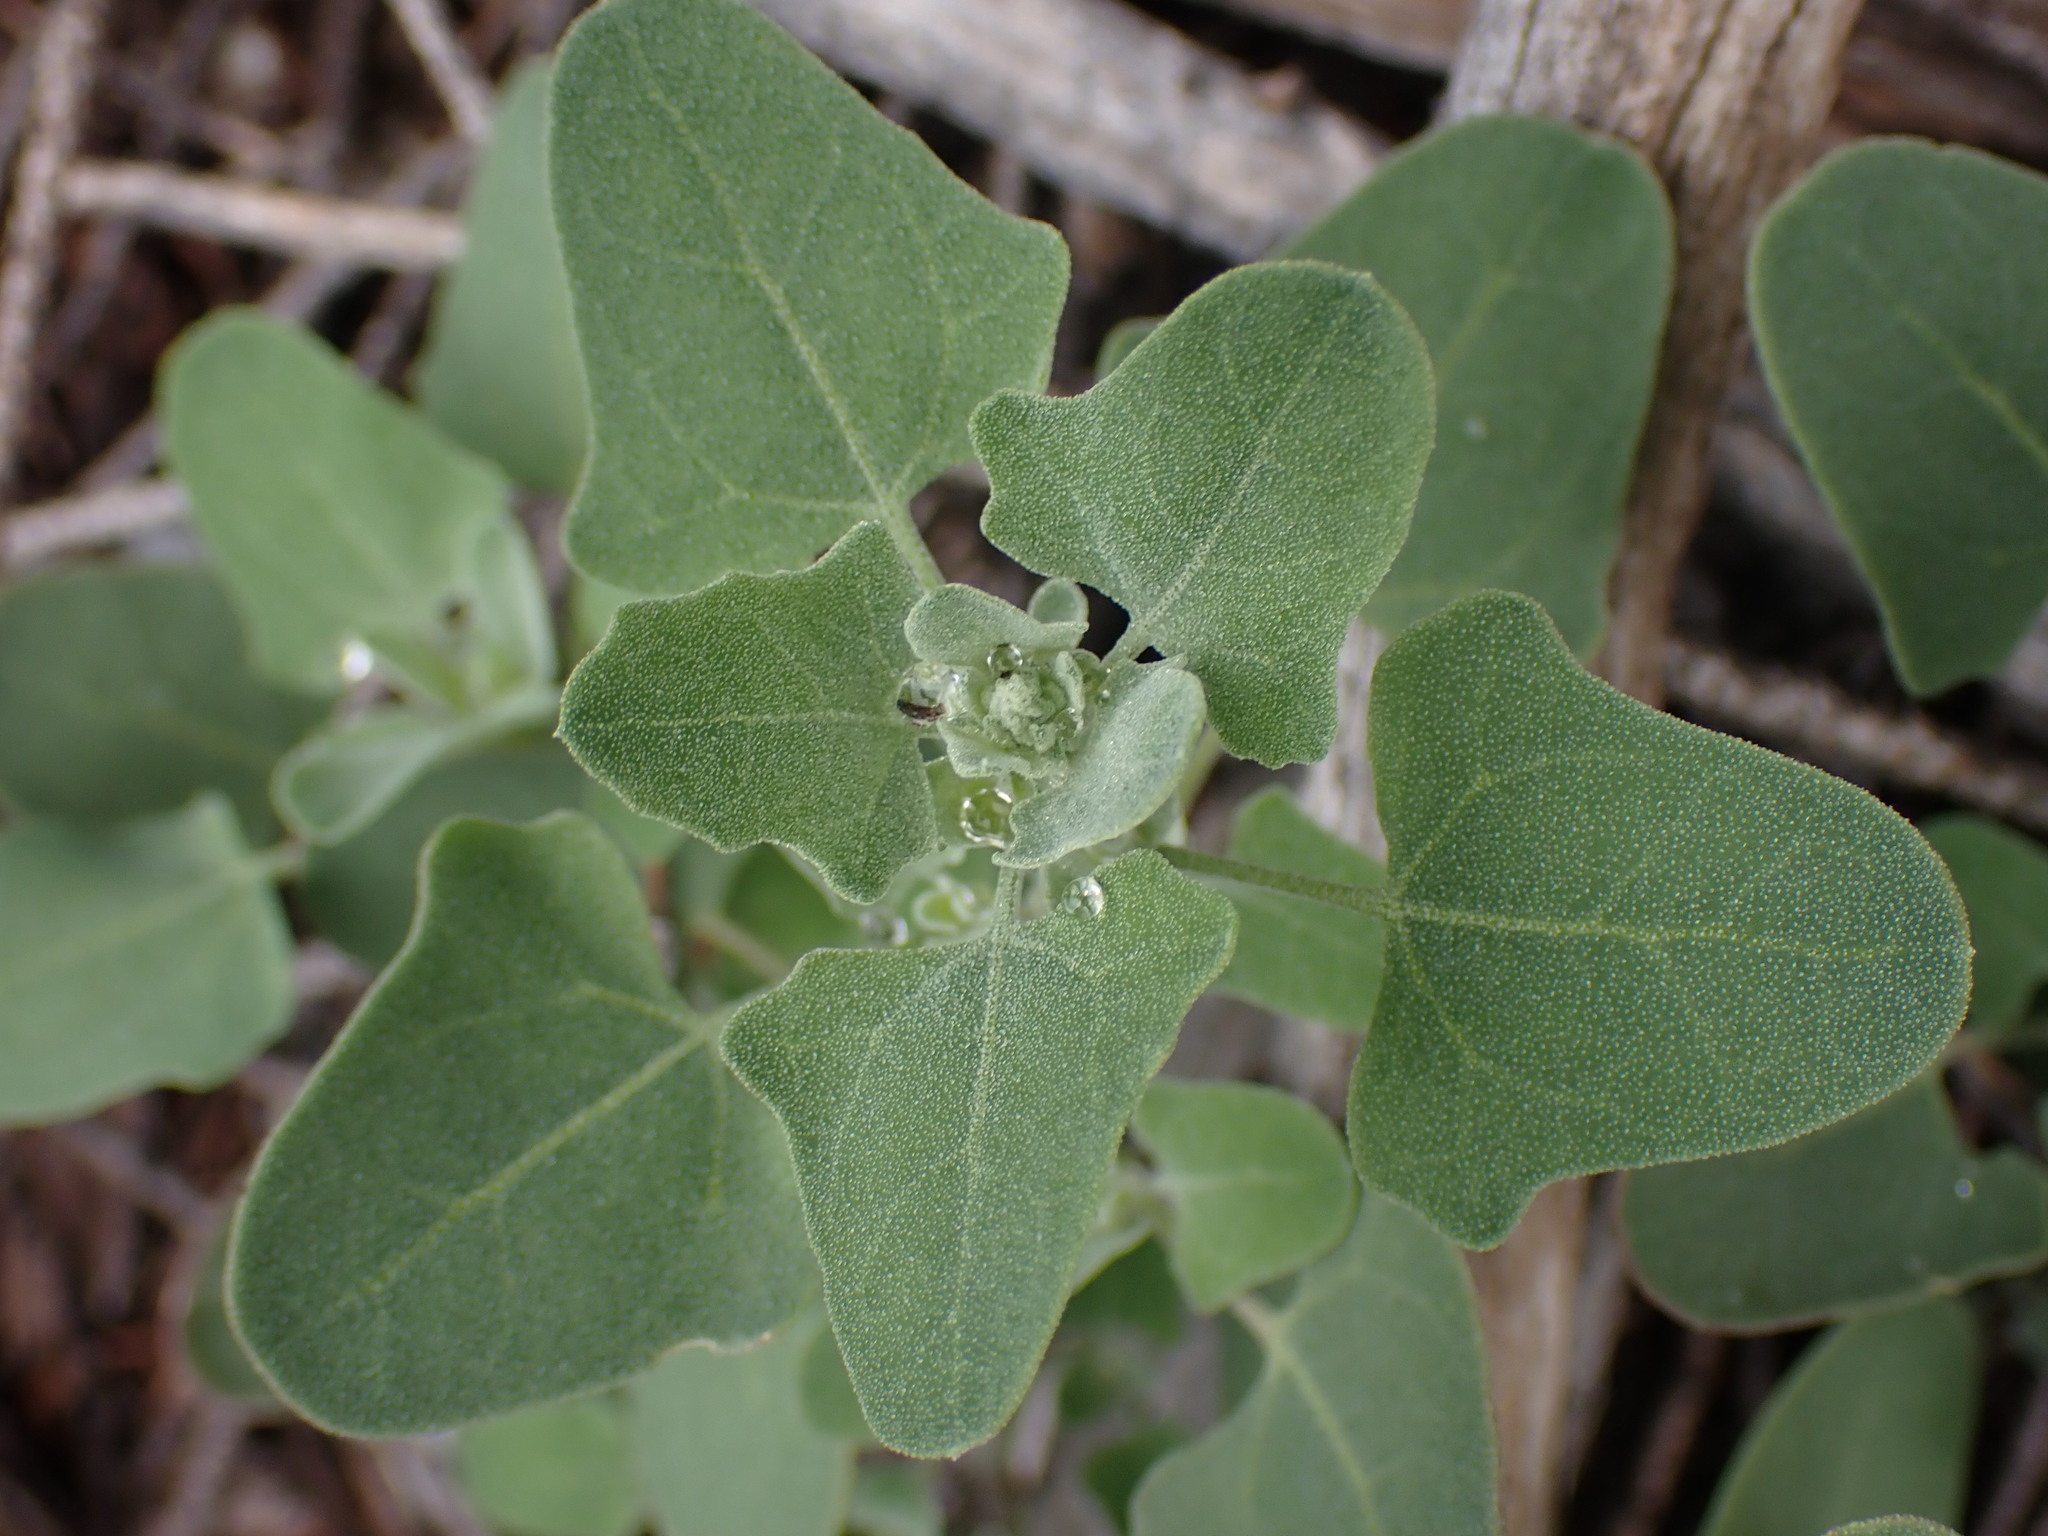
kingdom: Plantae
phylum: Tracheophyta
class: Magnoliopsida
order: Caryophyllales
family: Amaranthaceae
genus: Chenopodium
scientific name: Chenopodium album
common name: Fat-hen
